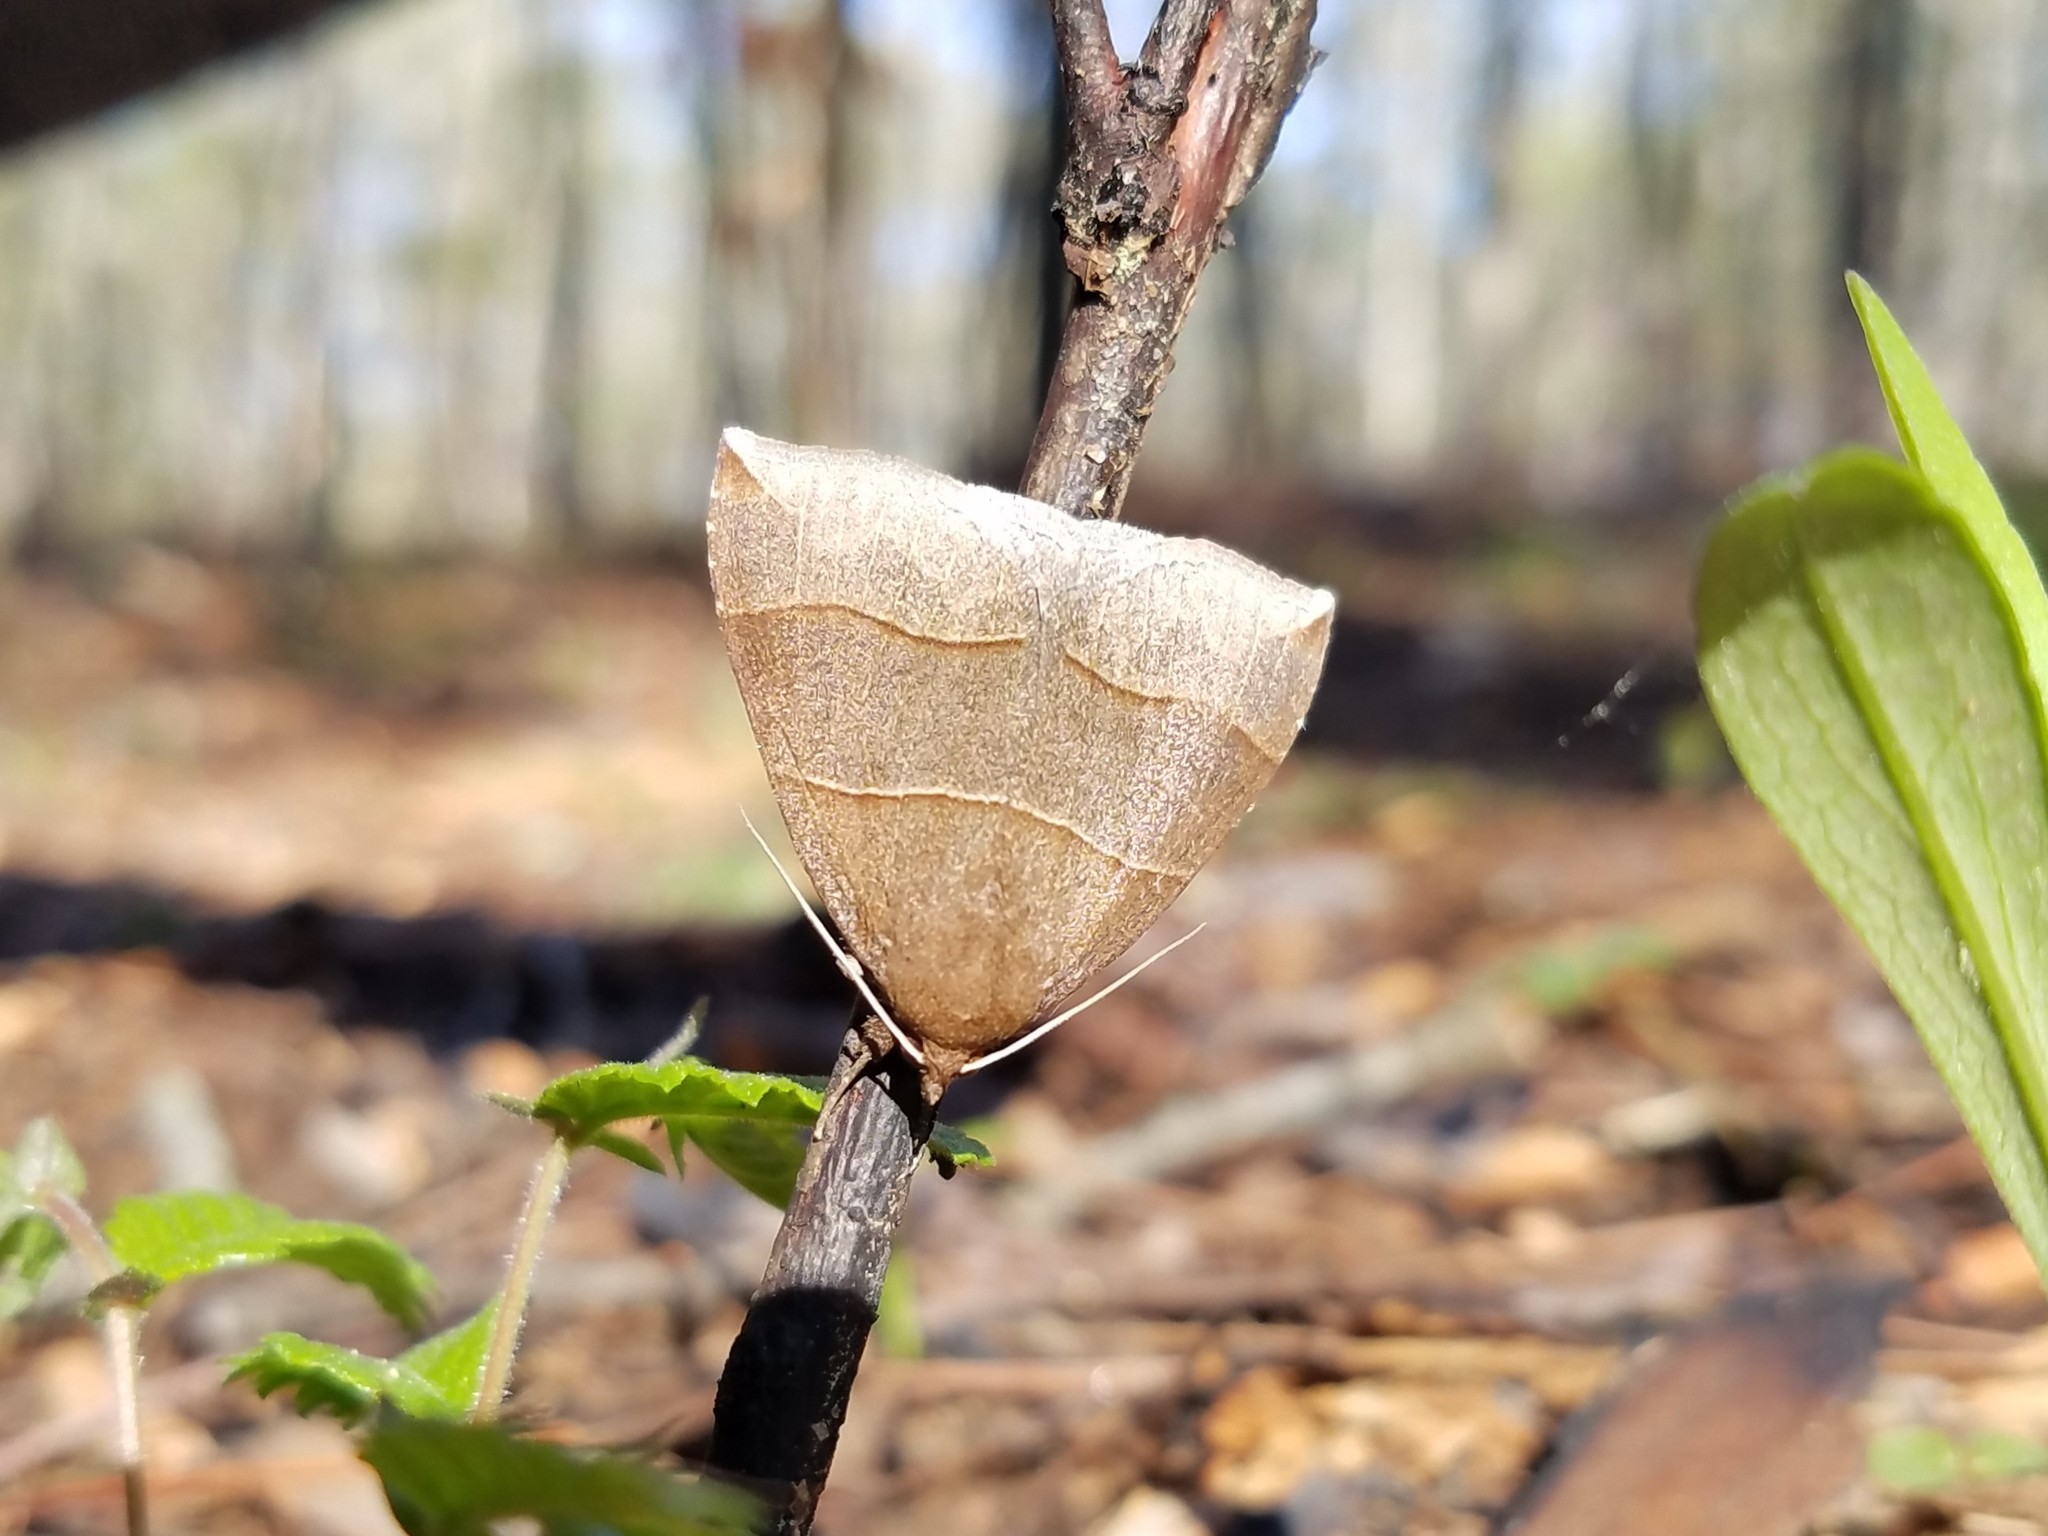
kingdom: Animalia
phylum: Arthropoda
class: Insecta
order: Lepidoptera
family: Erebidae
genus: Parallelia
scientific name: Parallelia bistriaris
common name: Maple looper moth
